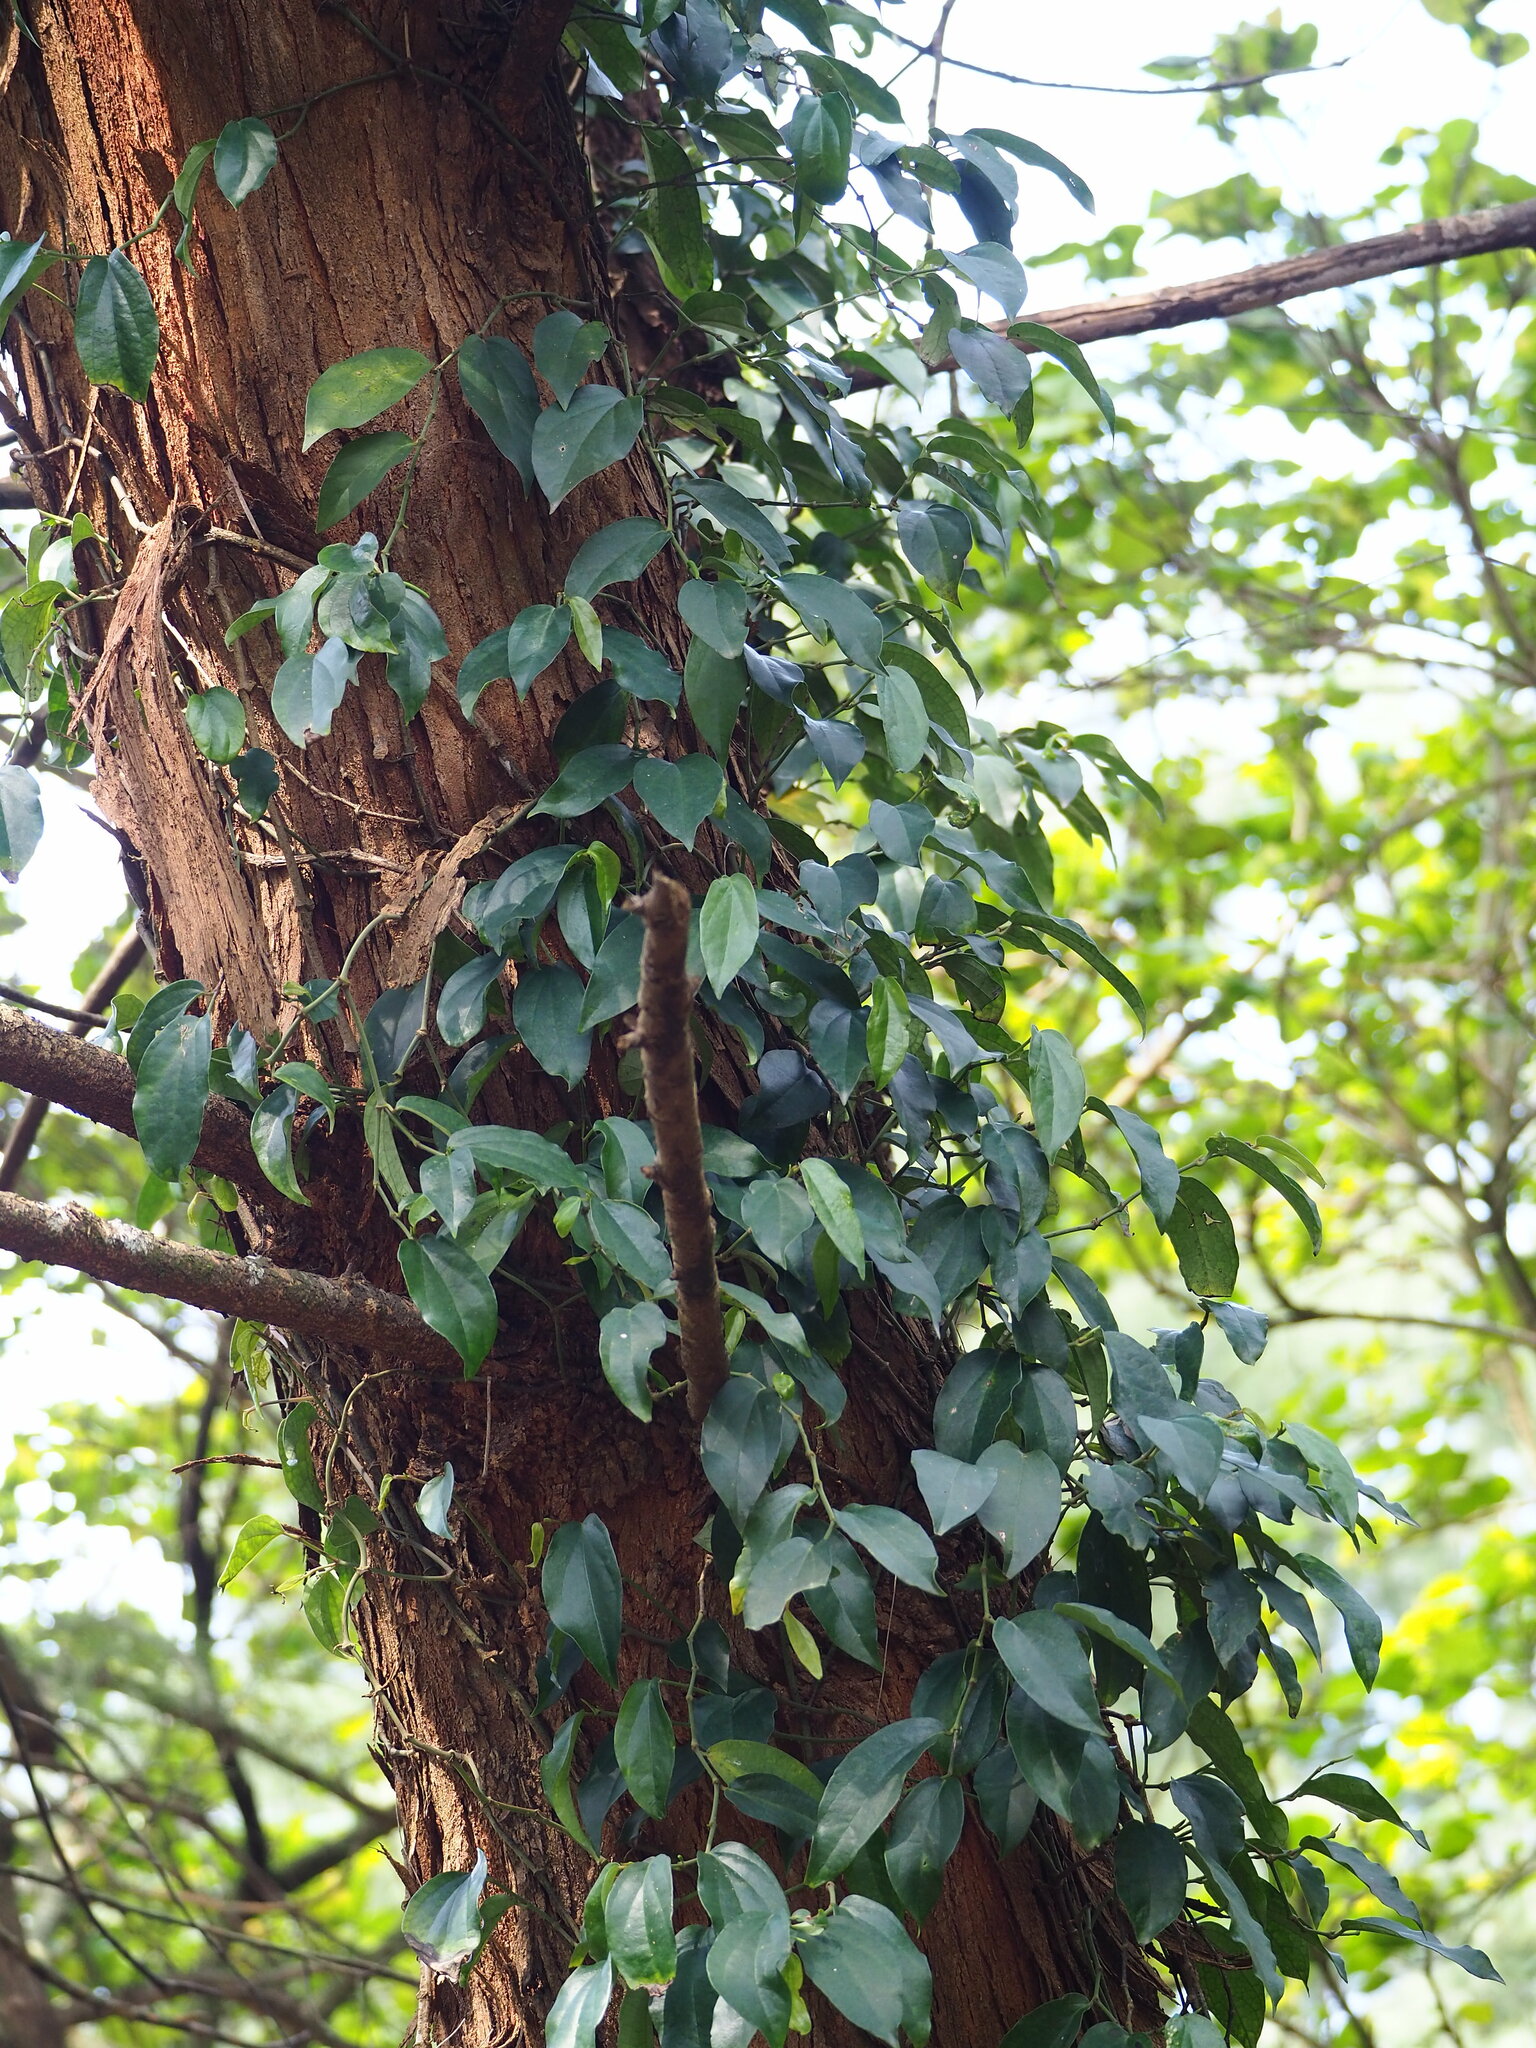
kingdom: Plantae
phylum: Tracheophyta
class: Magnoliopsida
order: Piperales
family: Piperaceae
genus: Piper
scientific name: Piper kadsura
